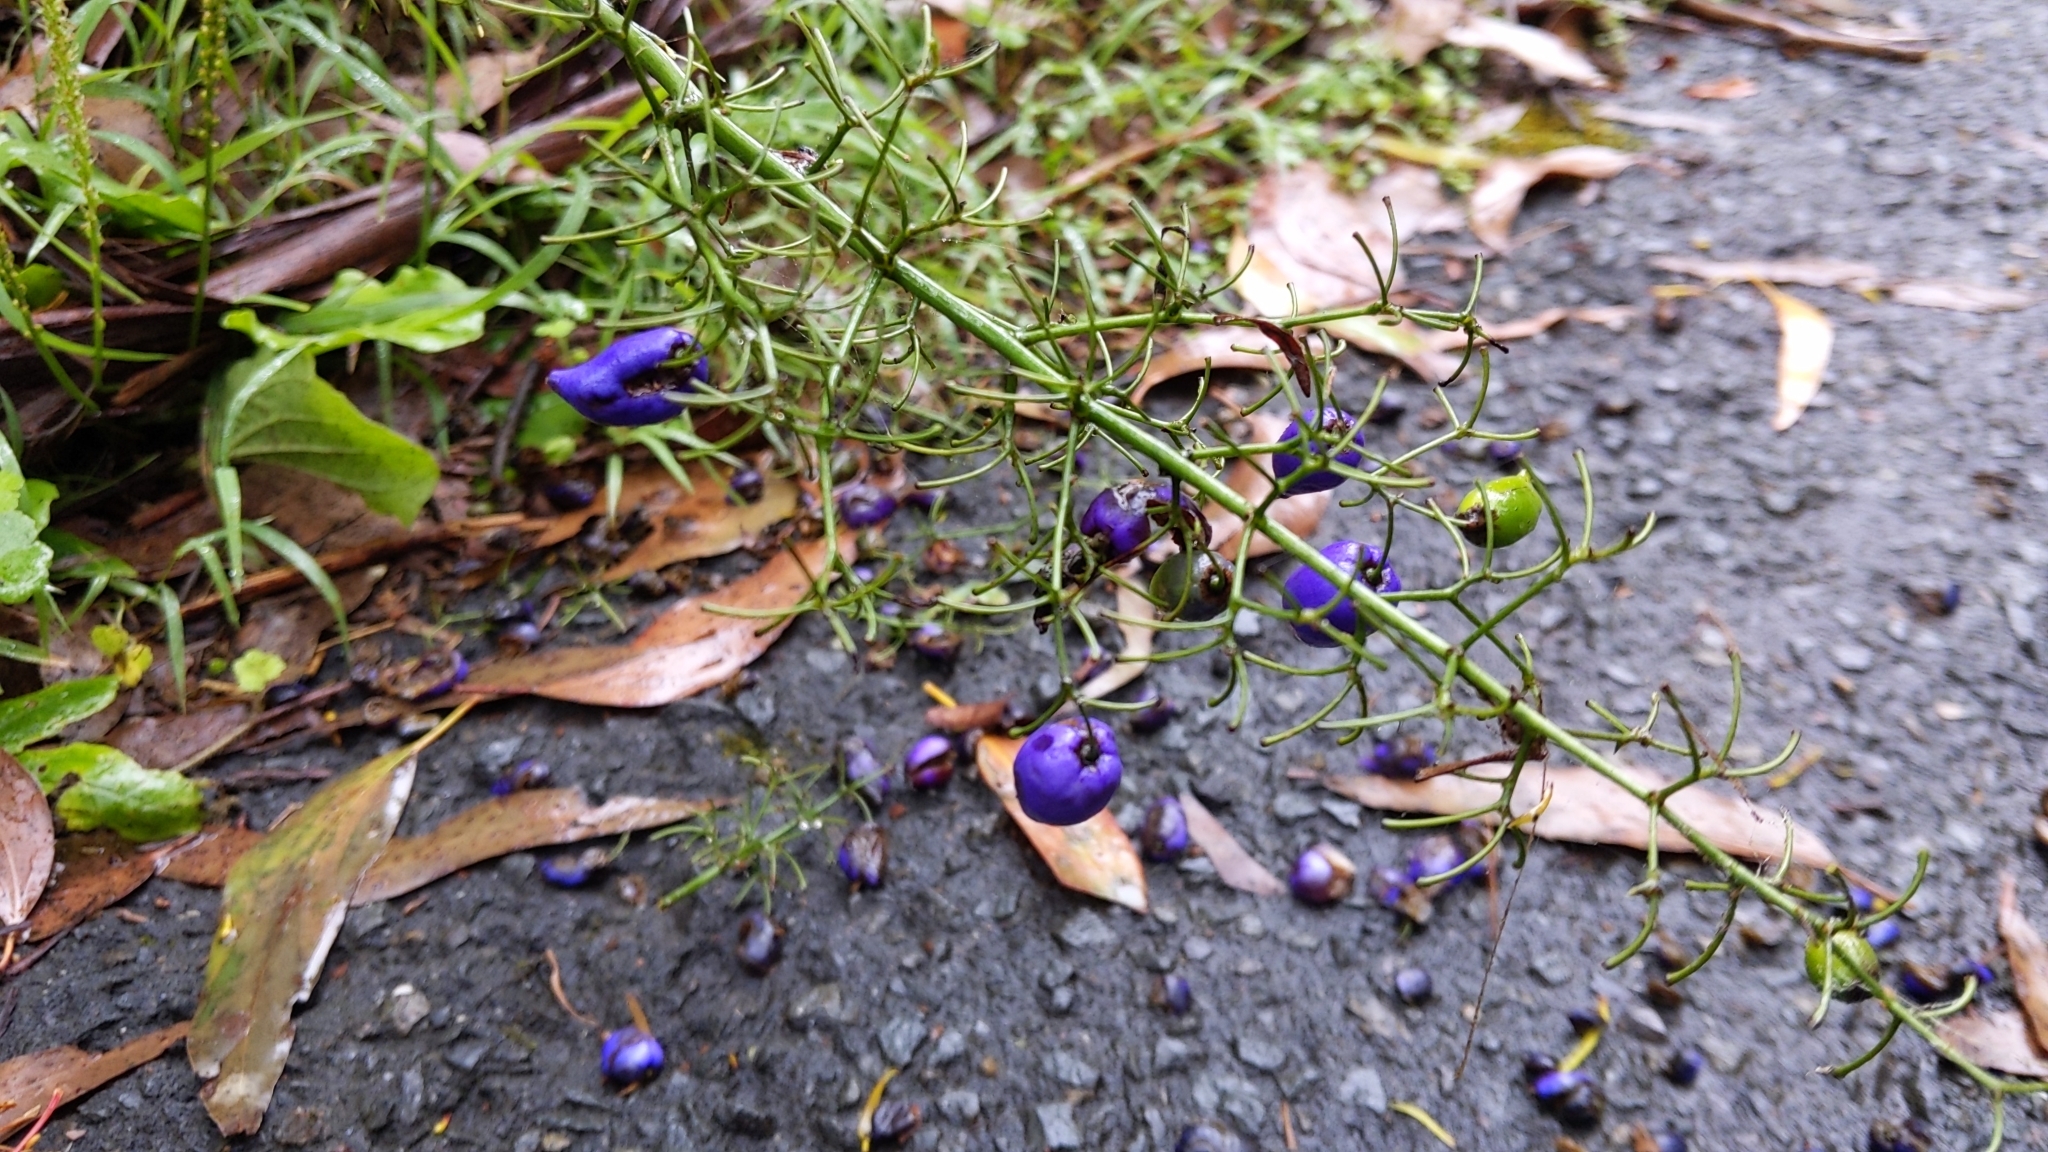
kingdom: Plantae
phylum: Tracheophyta
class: Liliopsida
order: Asparagales
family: Asphodelaceae
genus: Dianella
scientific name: Dianella tasmanica
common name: Tasman flax-lily
